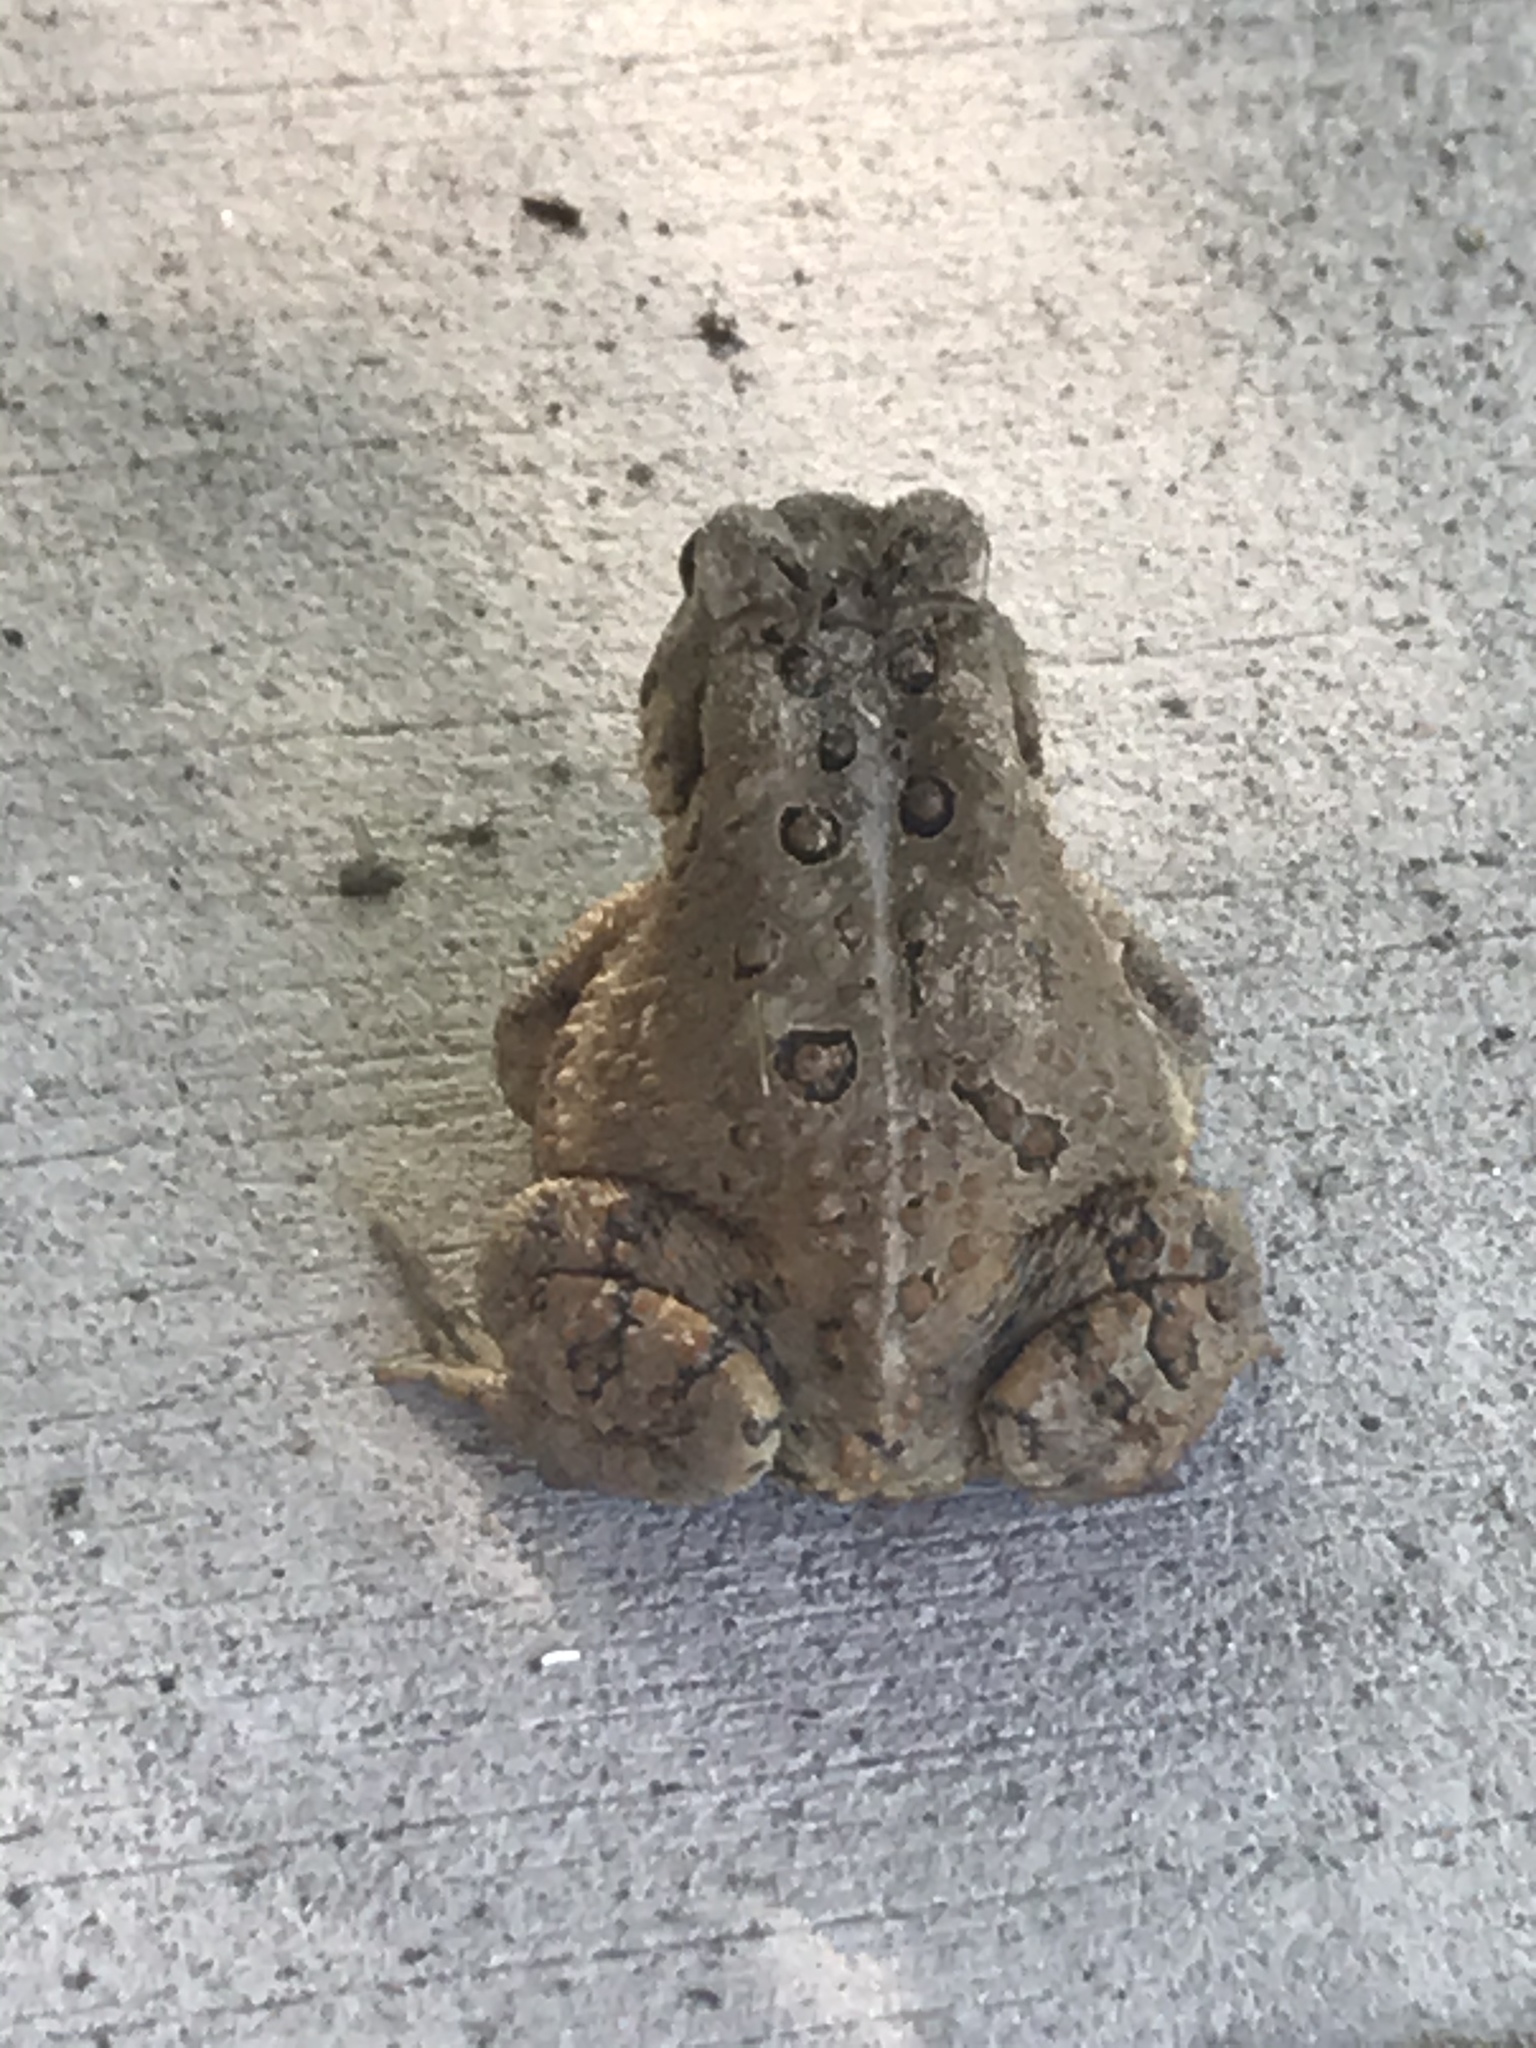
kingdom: Animalia
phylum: Chordata
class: Amphibia
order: Anura
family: Bufonidae
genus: Anaxyrus
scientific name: Anaxyrus americanus
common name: American toad
